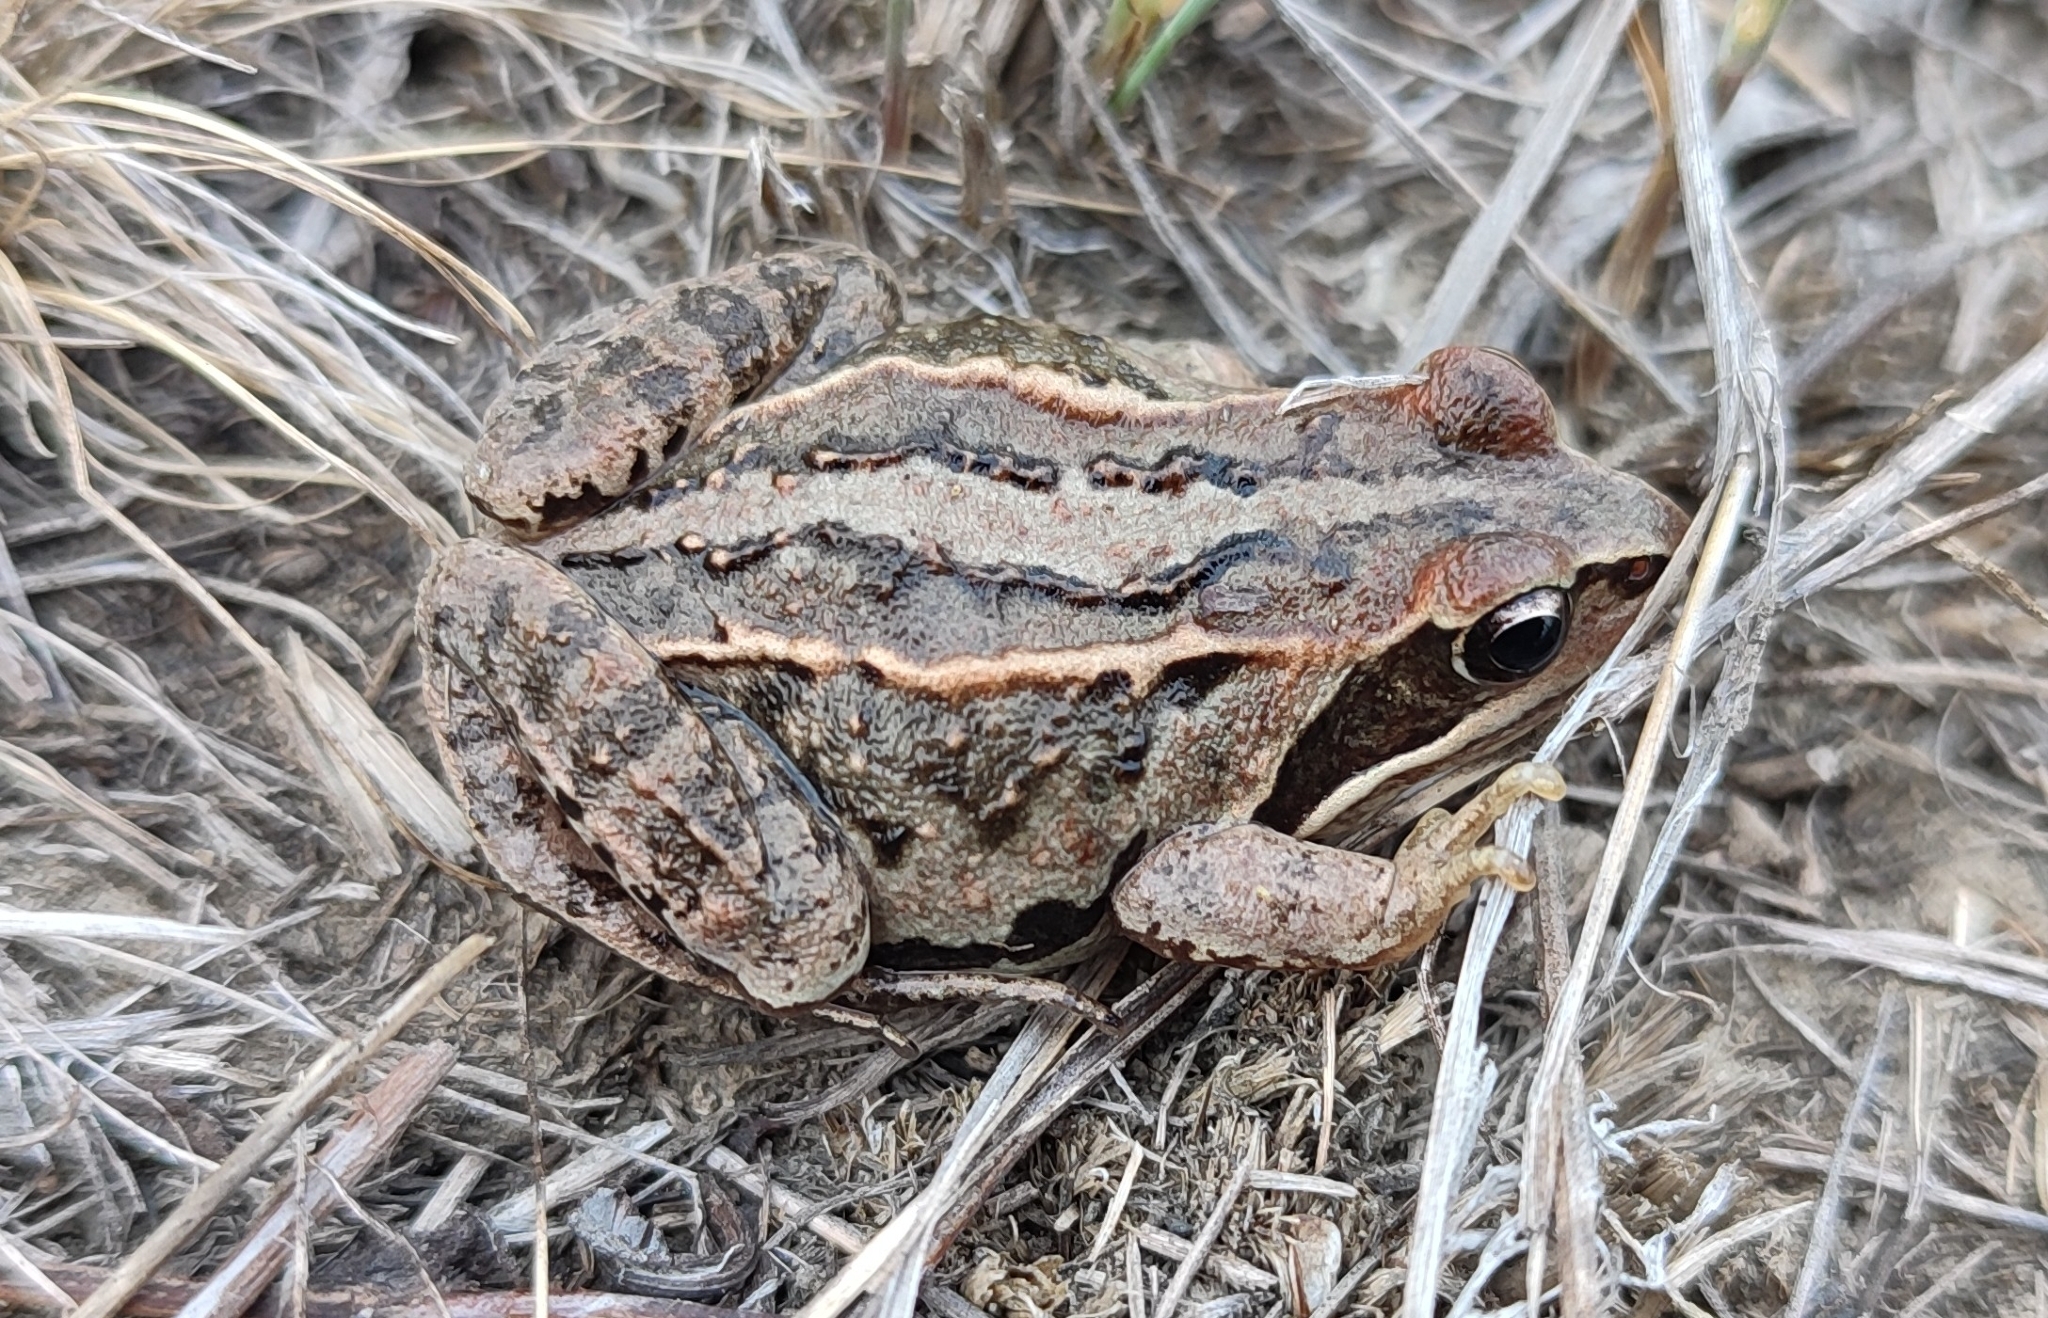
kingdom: Animalia
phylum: Chordata
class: Amphibia
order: Anura
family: Ranidae
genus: Rana
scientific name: Rana arvalis
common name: Moor frog
